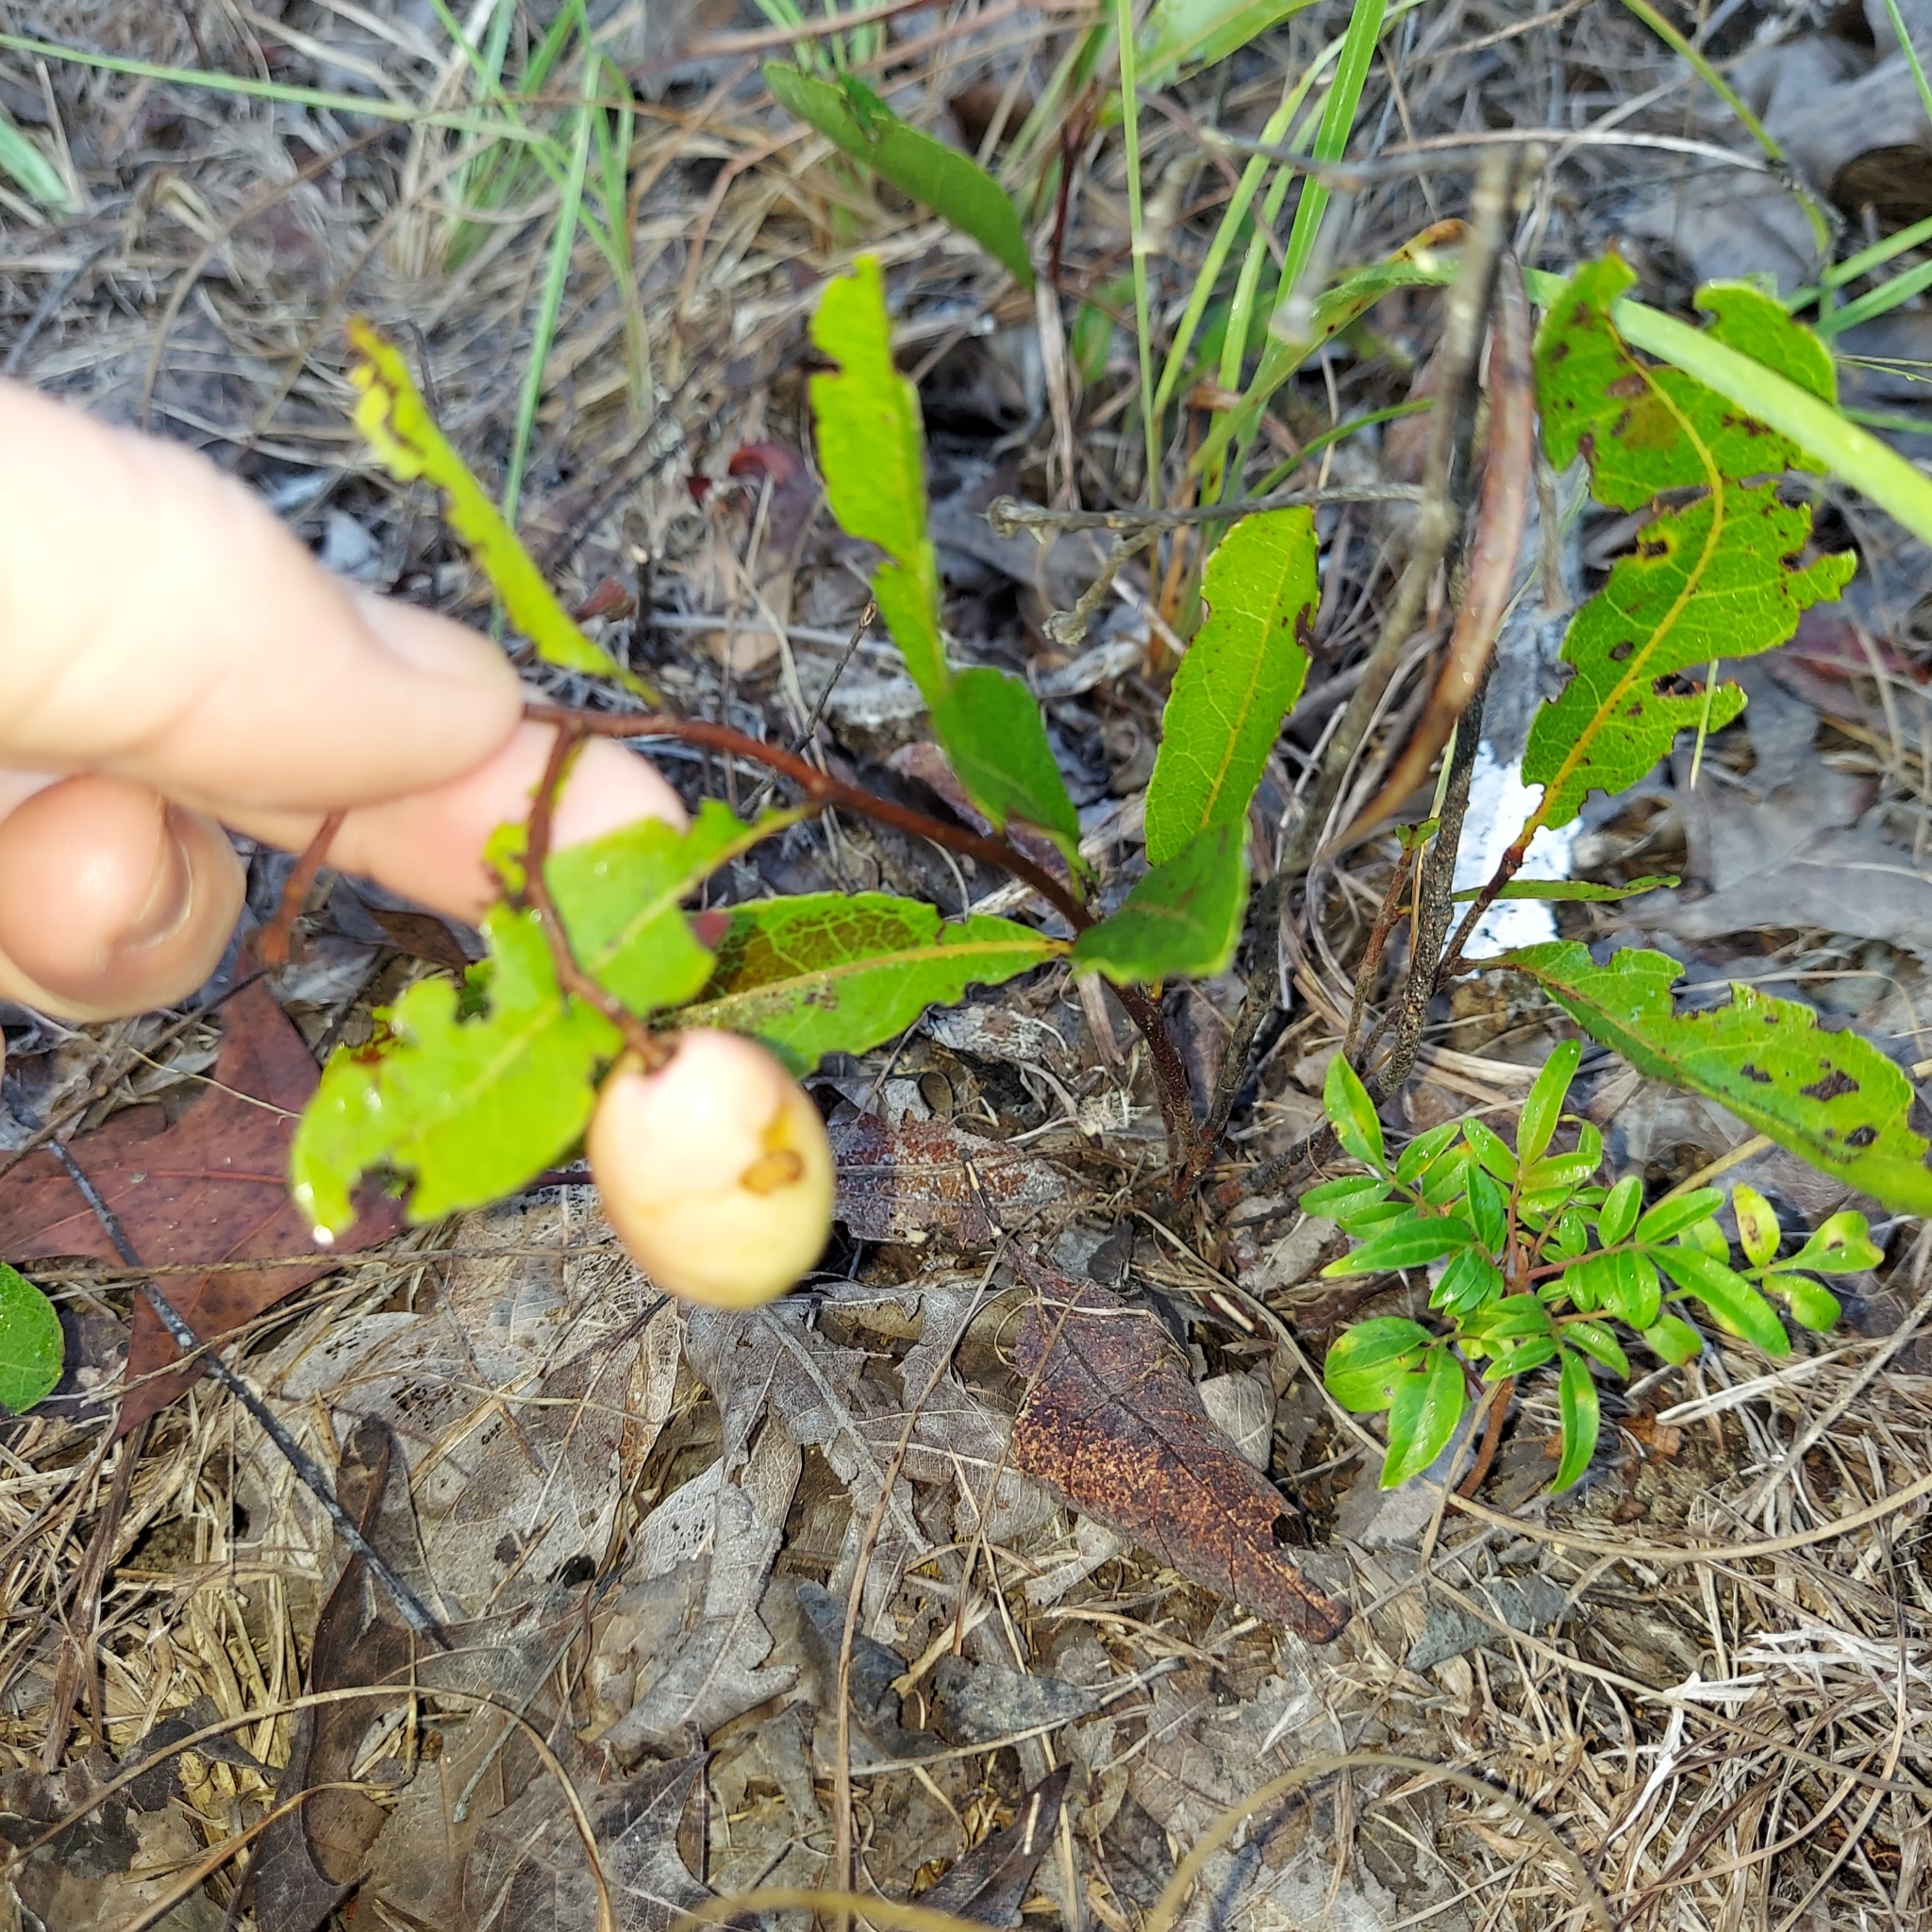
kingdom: Plantae
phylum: Tracheophyta
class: Magnoliopsida
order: Malpighiales
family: Chrysobalanaceae
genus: Geobalanus
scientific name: Geobalanus oblongifolius
